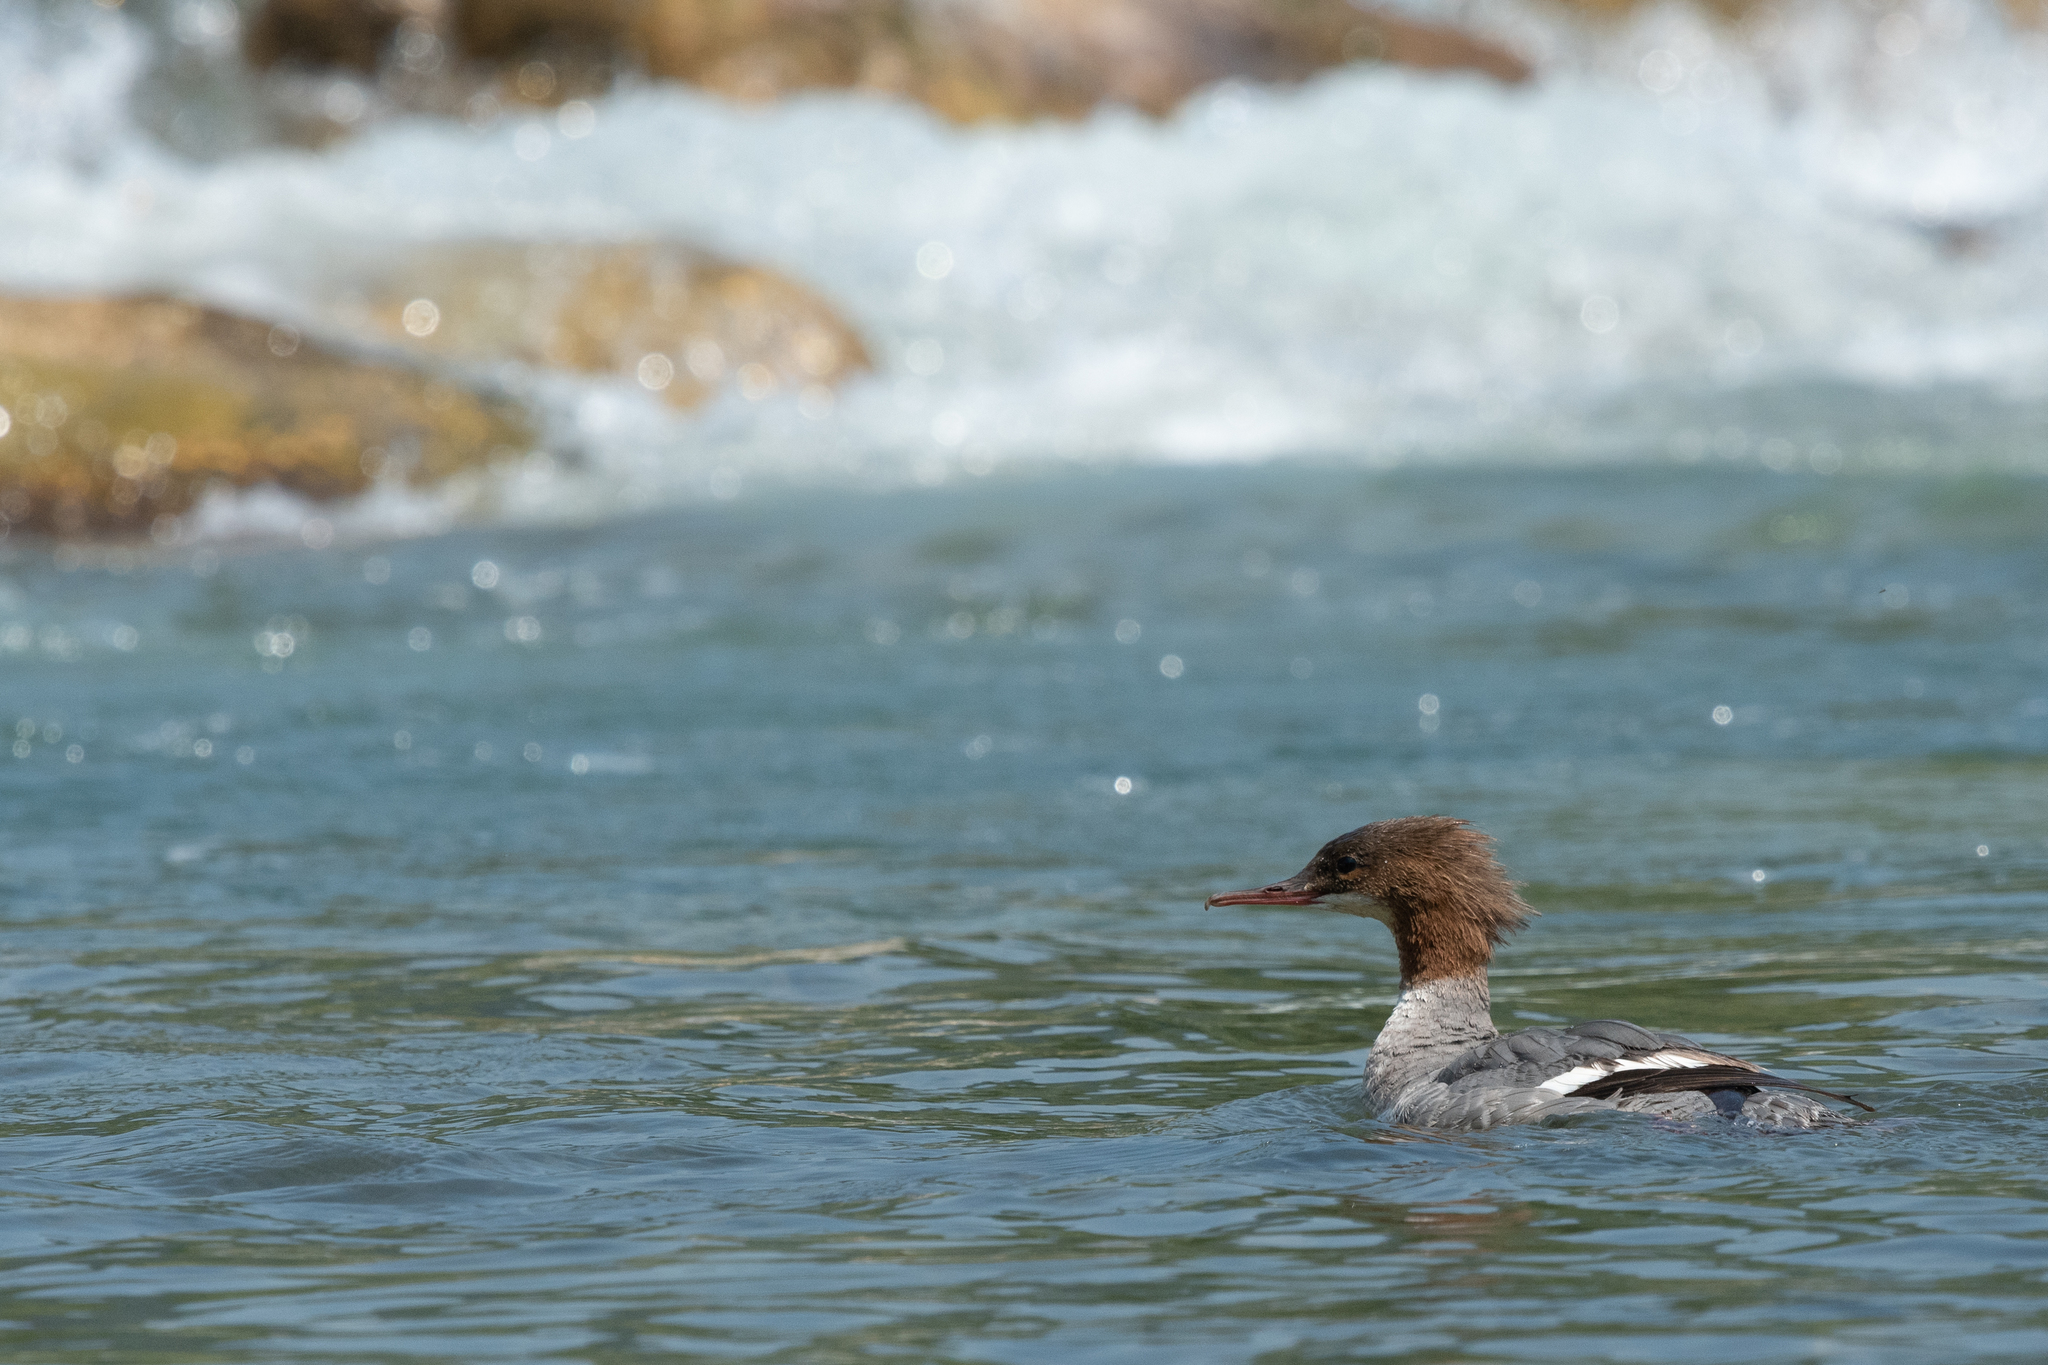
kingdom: Animalia
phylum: Chordata
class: Aves
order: Anseriformes
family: Anatidae
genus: Mergus
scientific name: Mergus merganser
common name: Common merganser
